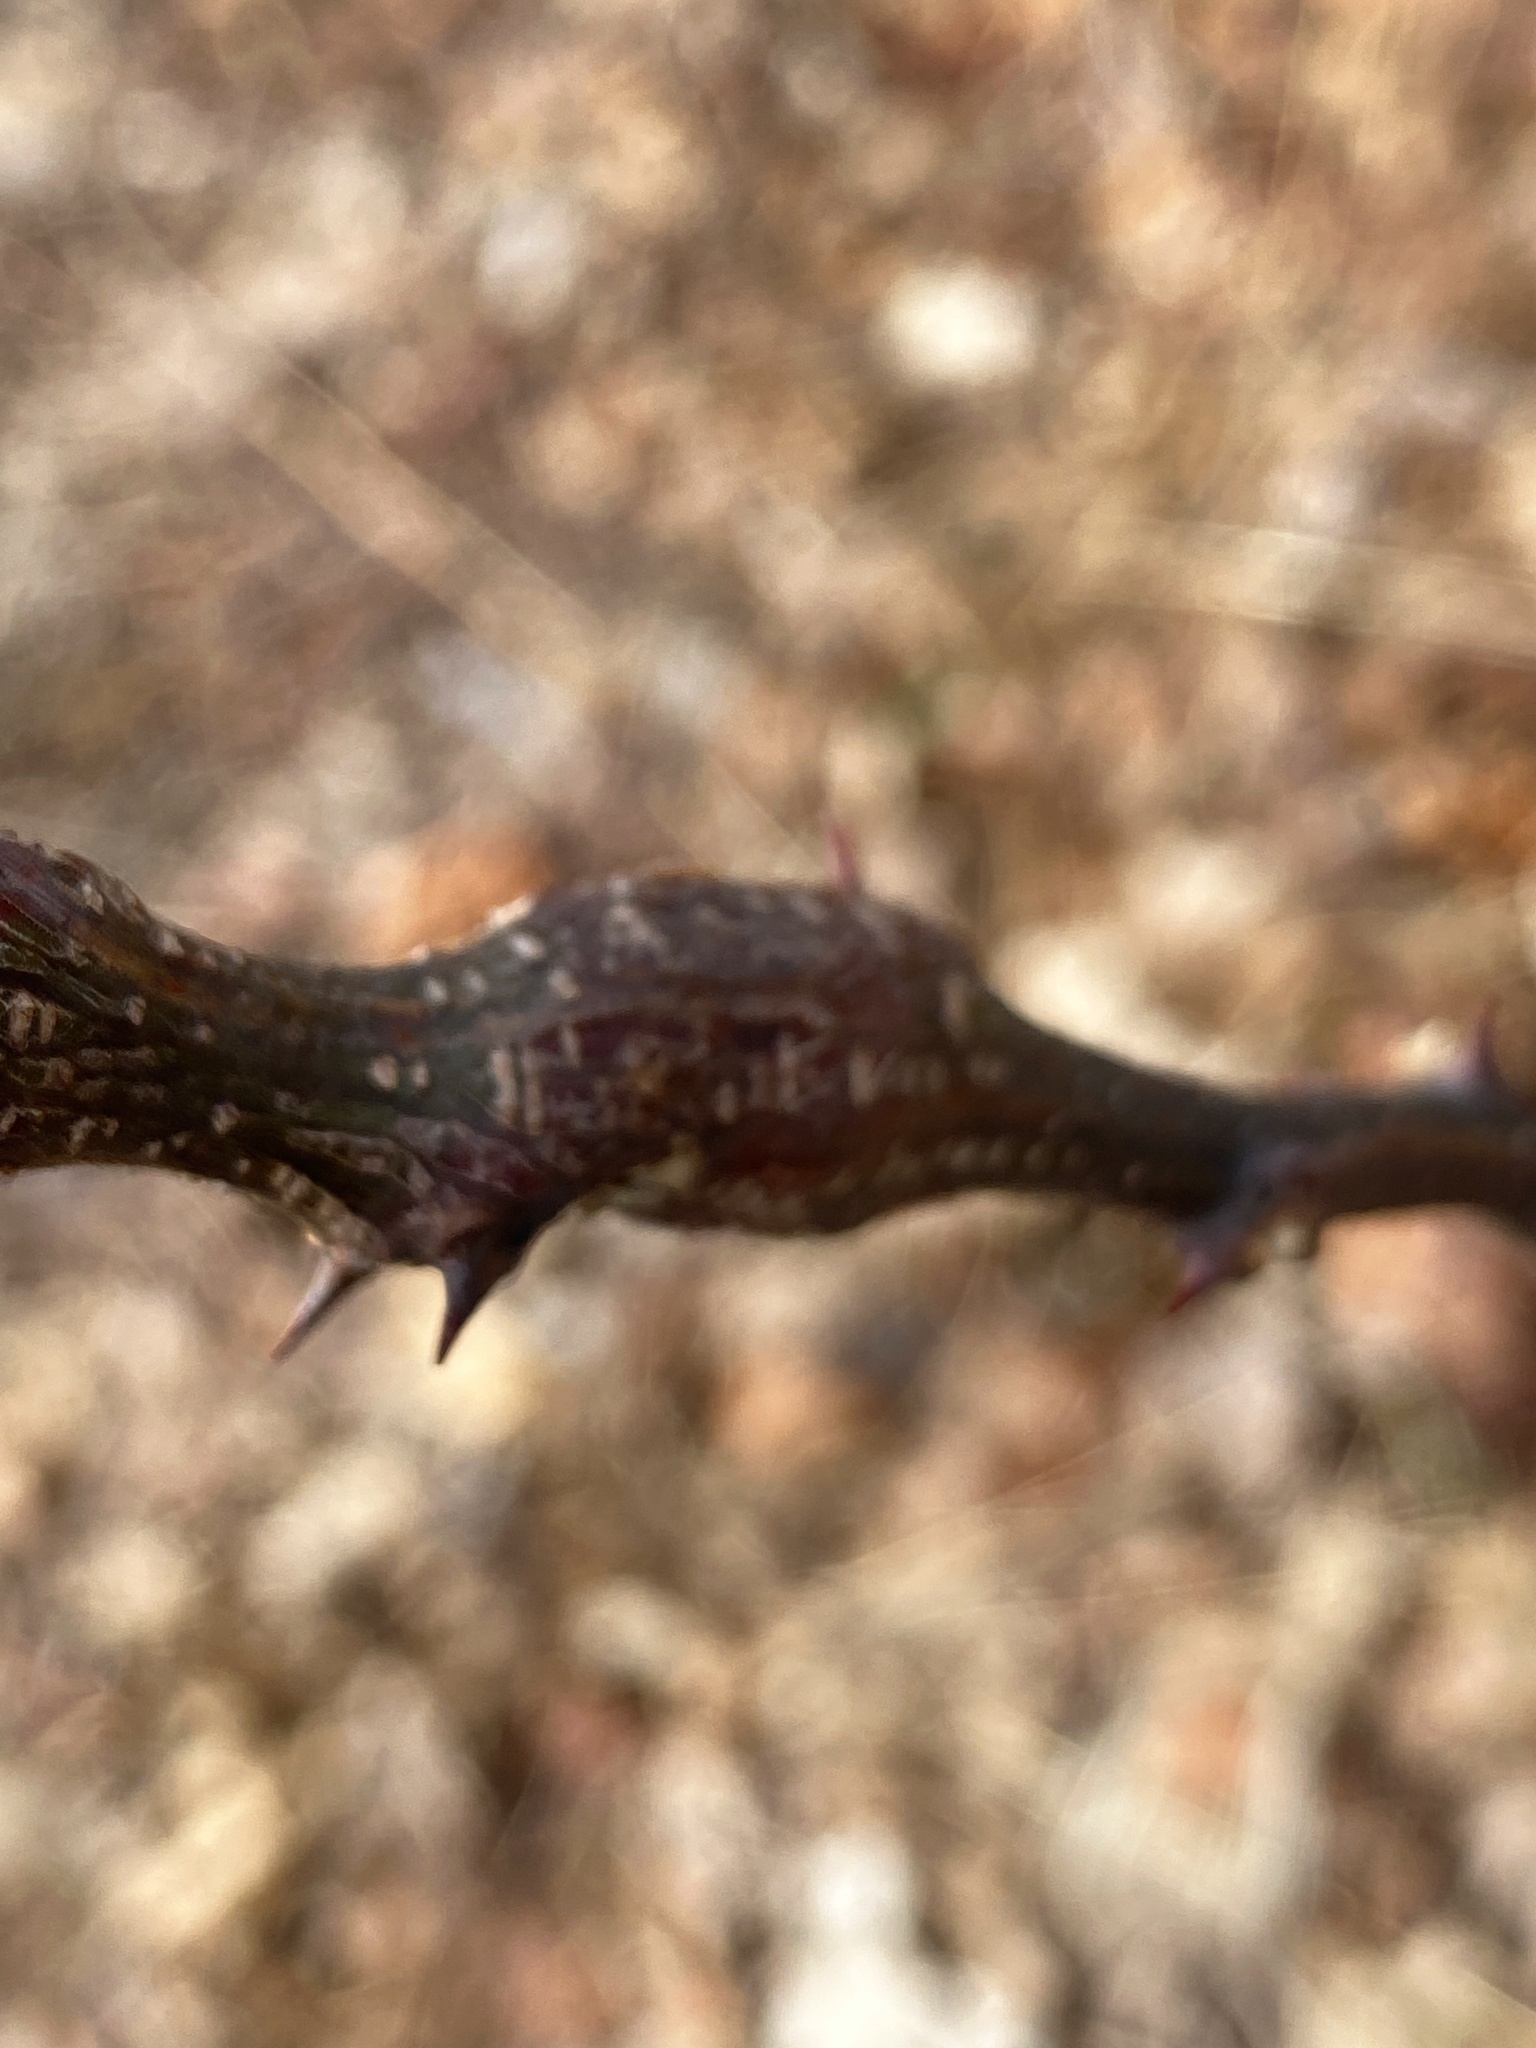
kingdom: Animalia
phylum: Arthropoda
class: Insecta
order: Lepidoptera
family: Tortricidae
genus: Ecdytolopha
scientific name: Ecdytolopha insiticiana
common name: Locust twig borer moth
